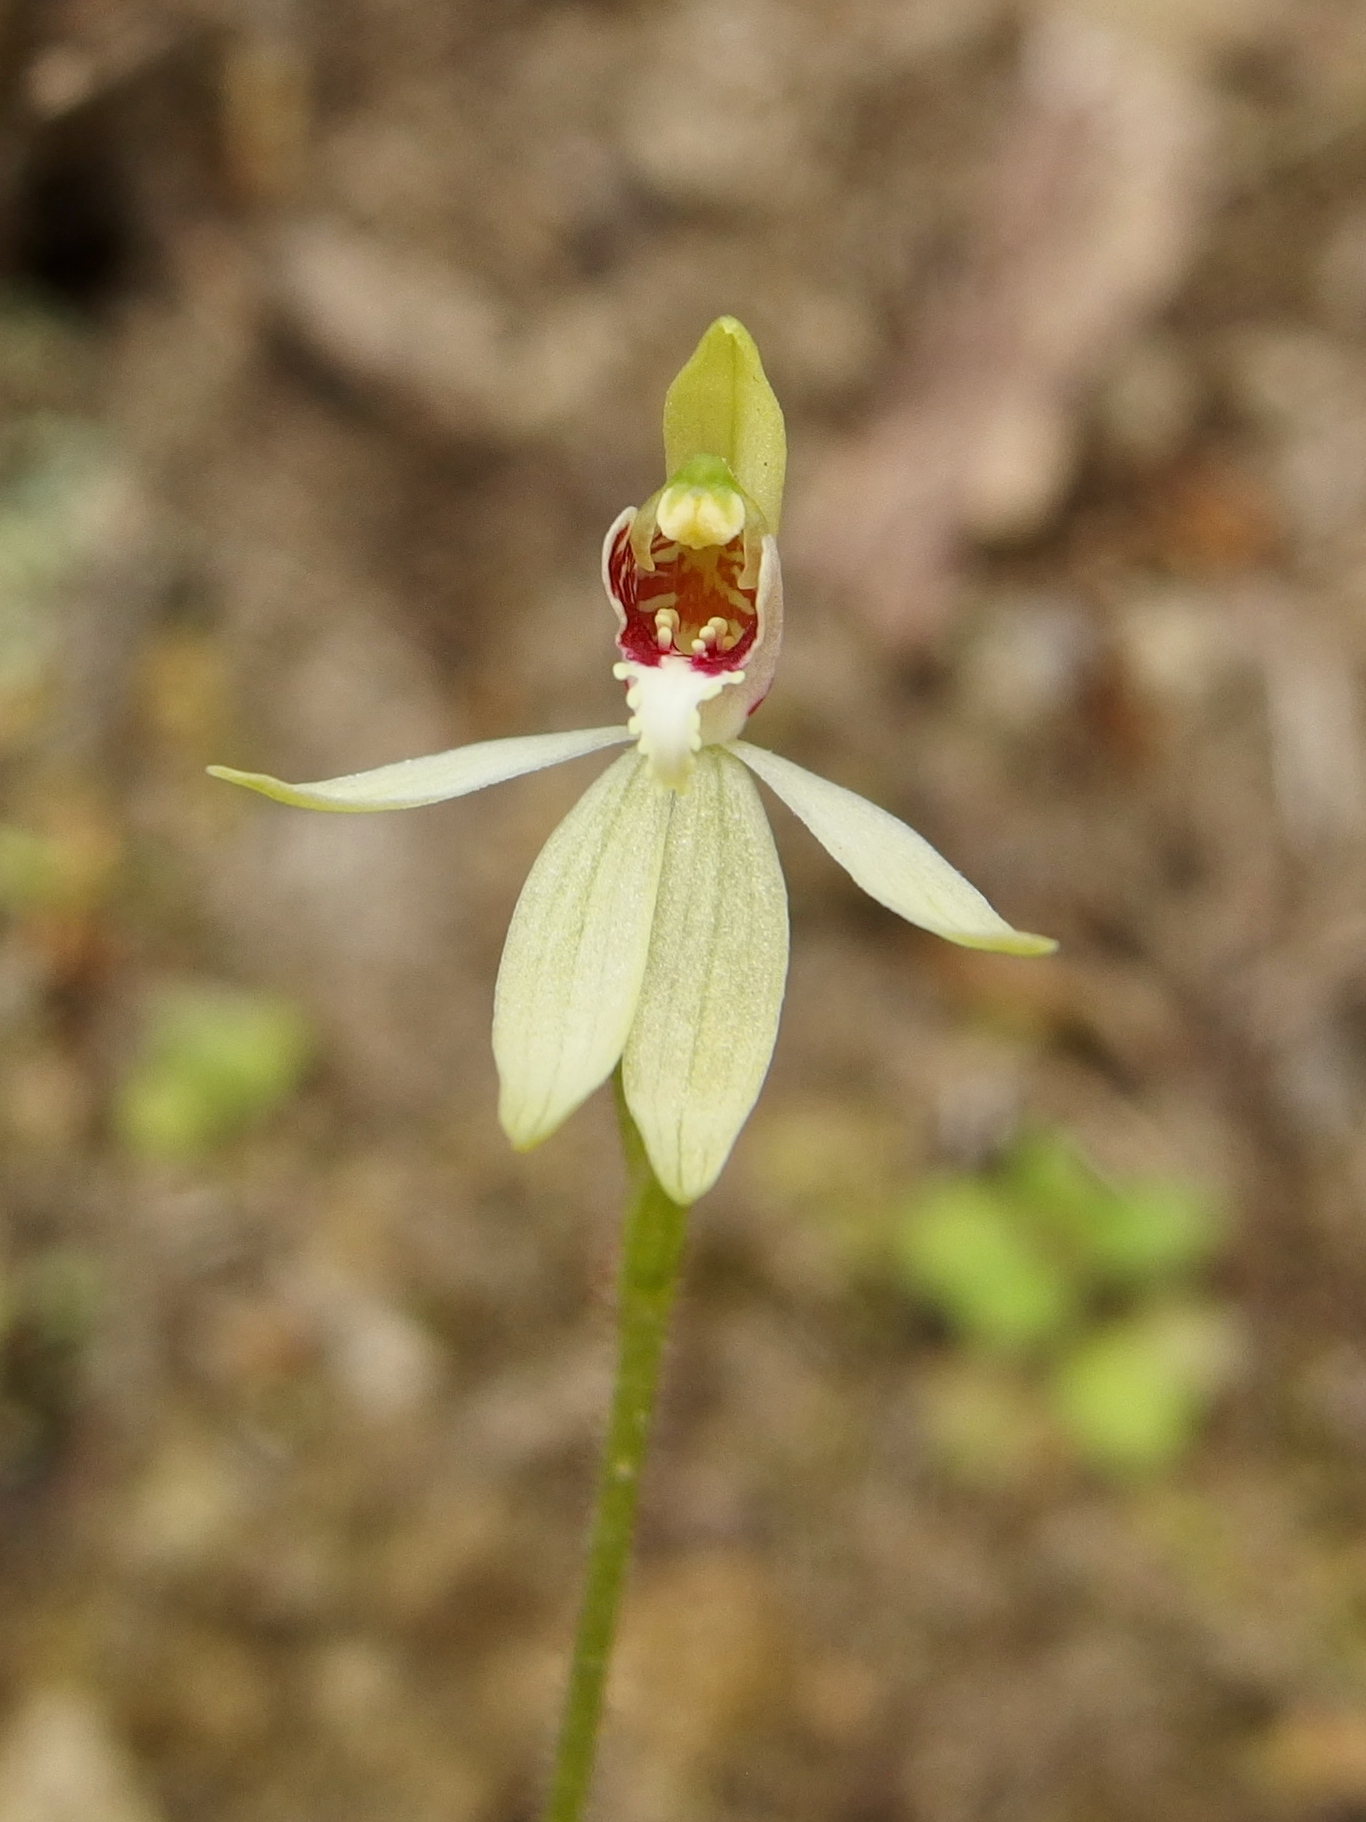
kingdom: Plantae
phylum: Tracheophyta
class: Liliopsida
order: Asparagales
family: Orchidaceae
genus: Caladenia
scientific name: Caladenia chlorostyla
